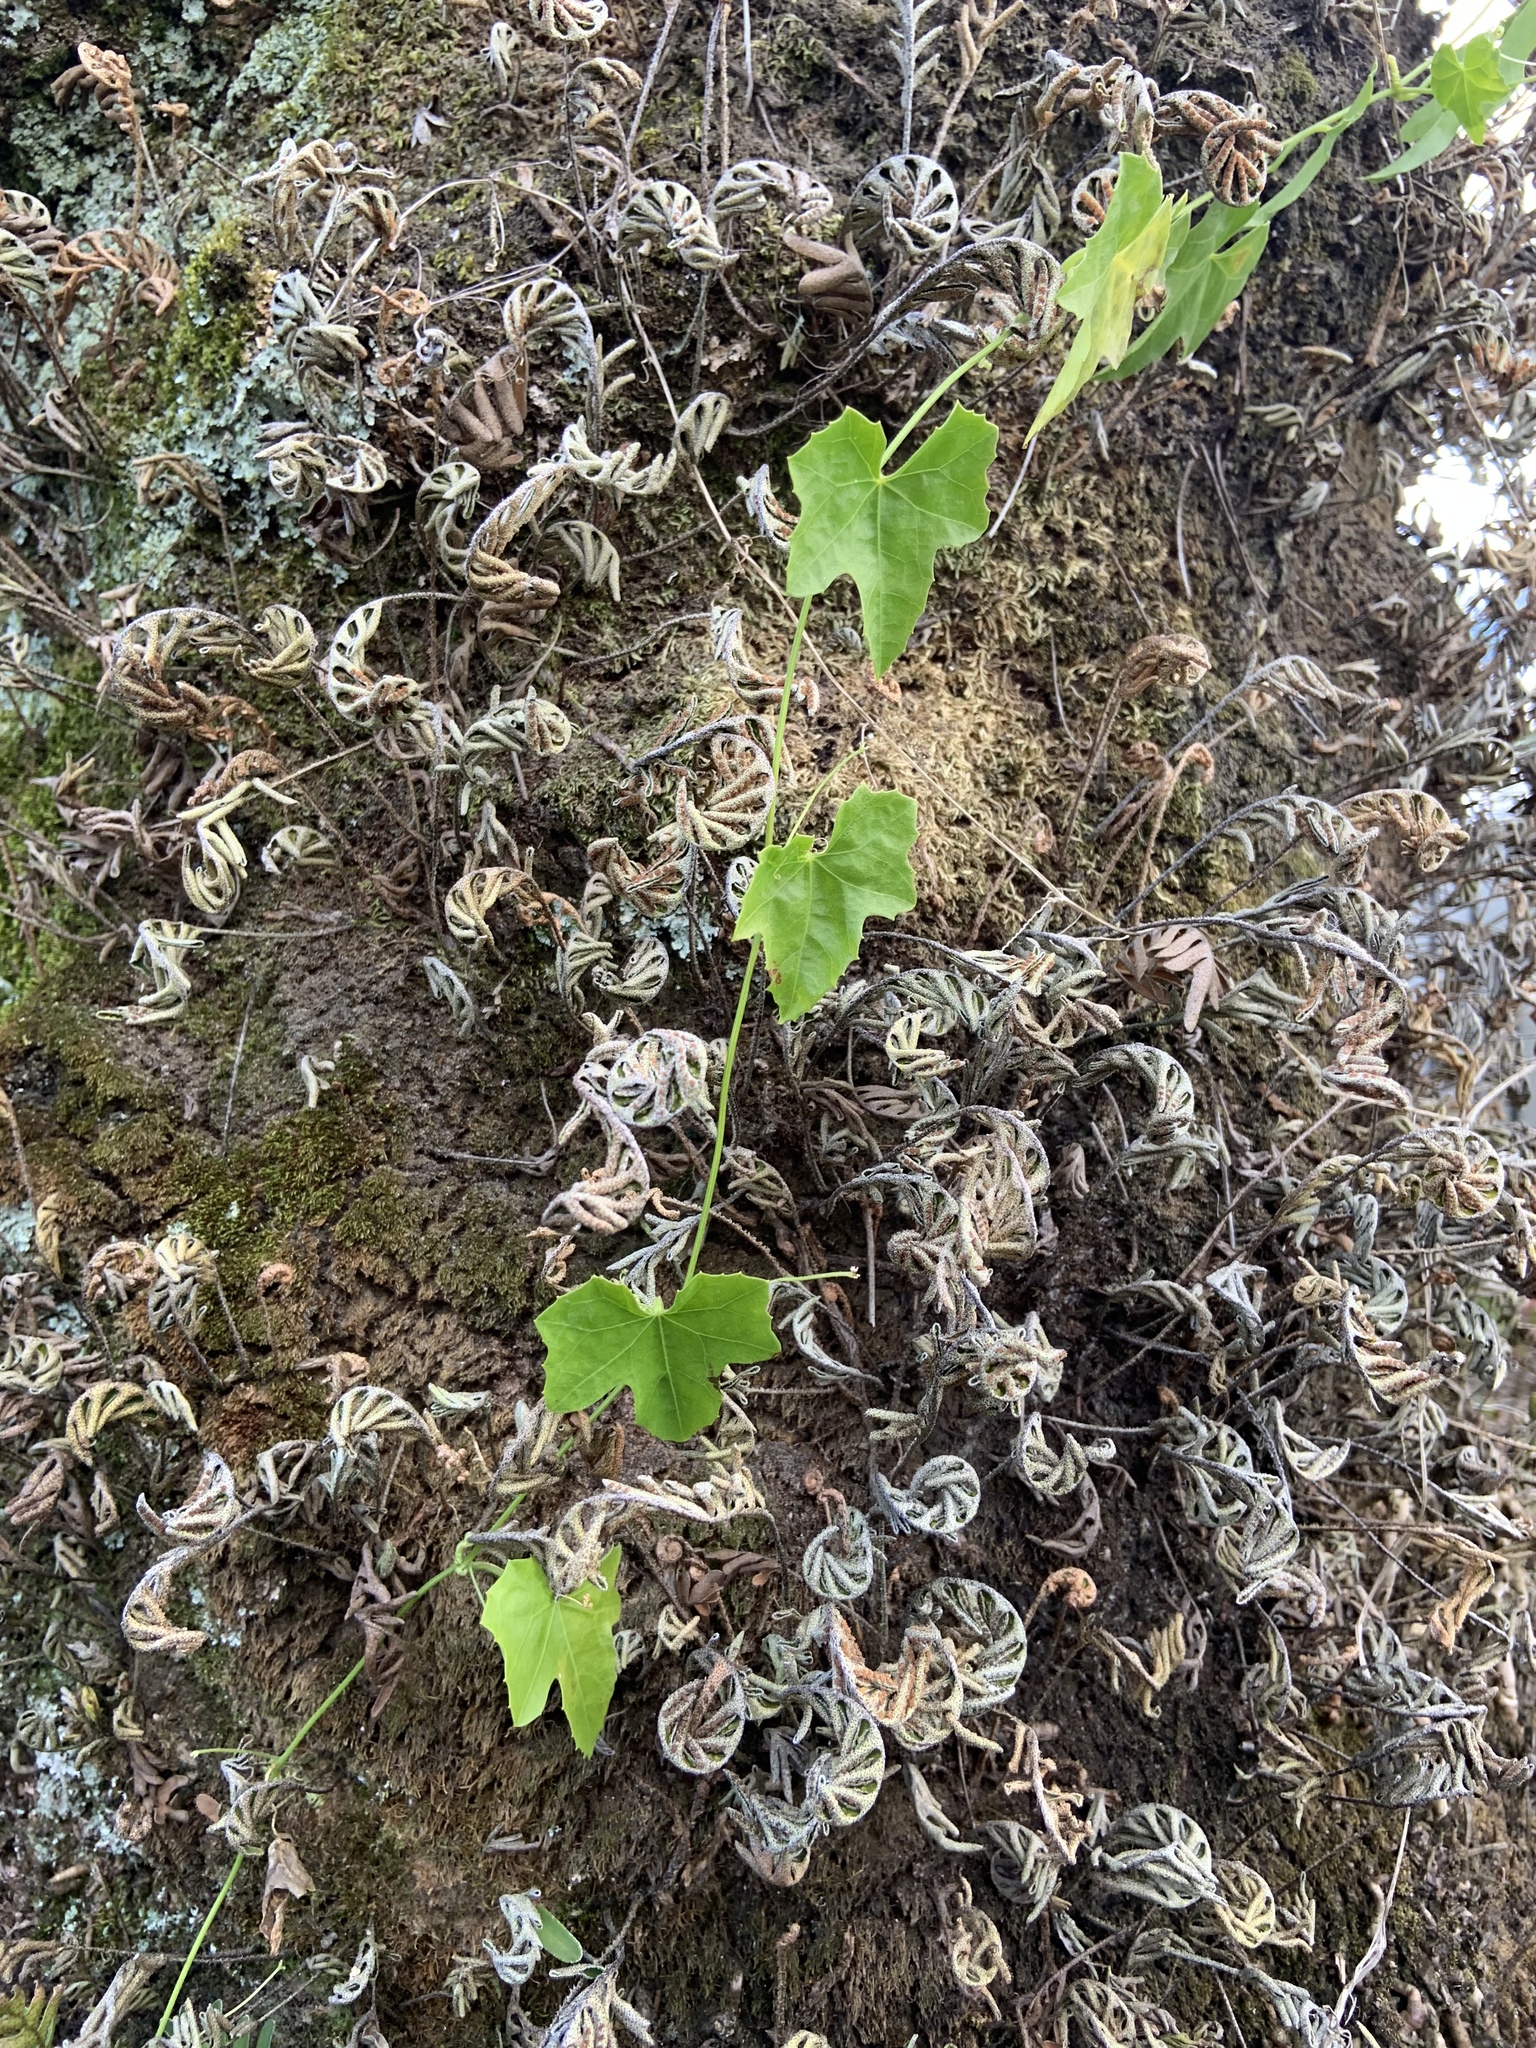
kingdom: Plantae
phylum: Tracheophyta
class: Magnoliopsida
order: Cucurbitales
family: Cucurbitaceae
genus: Melothria
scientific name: Melothria pendula
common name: Creeping-cucumber
